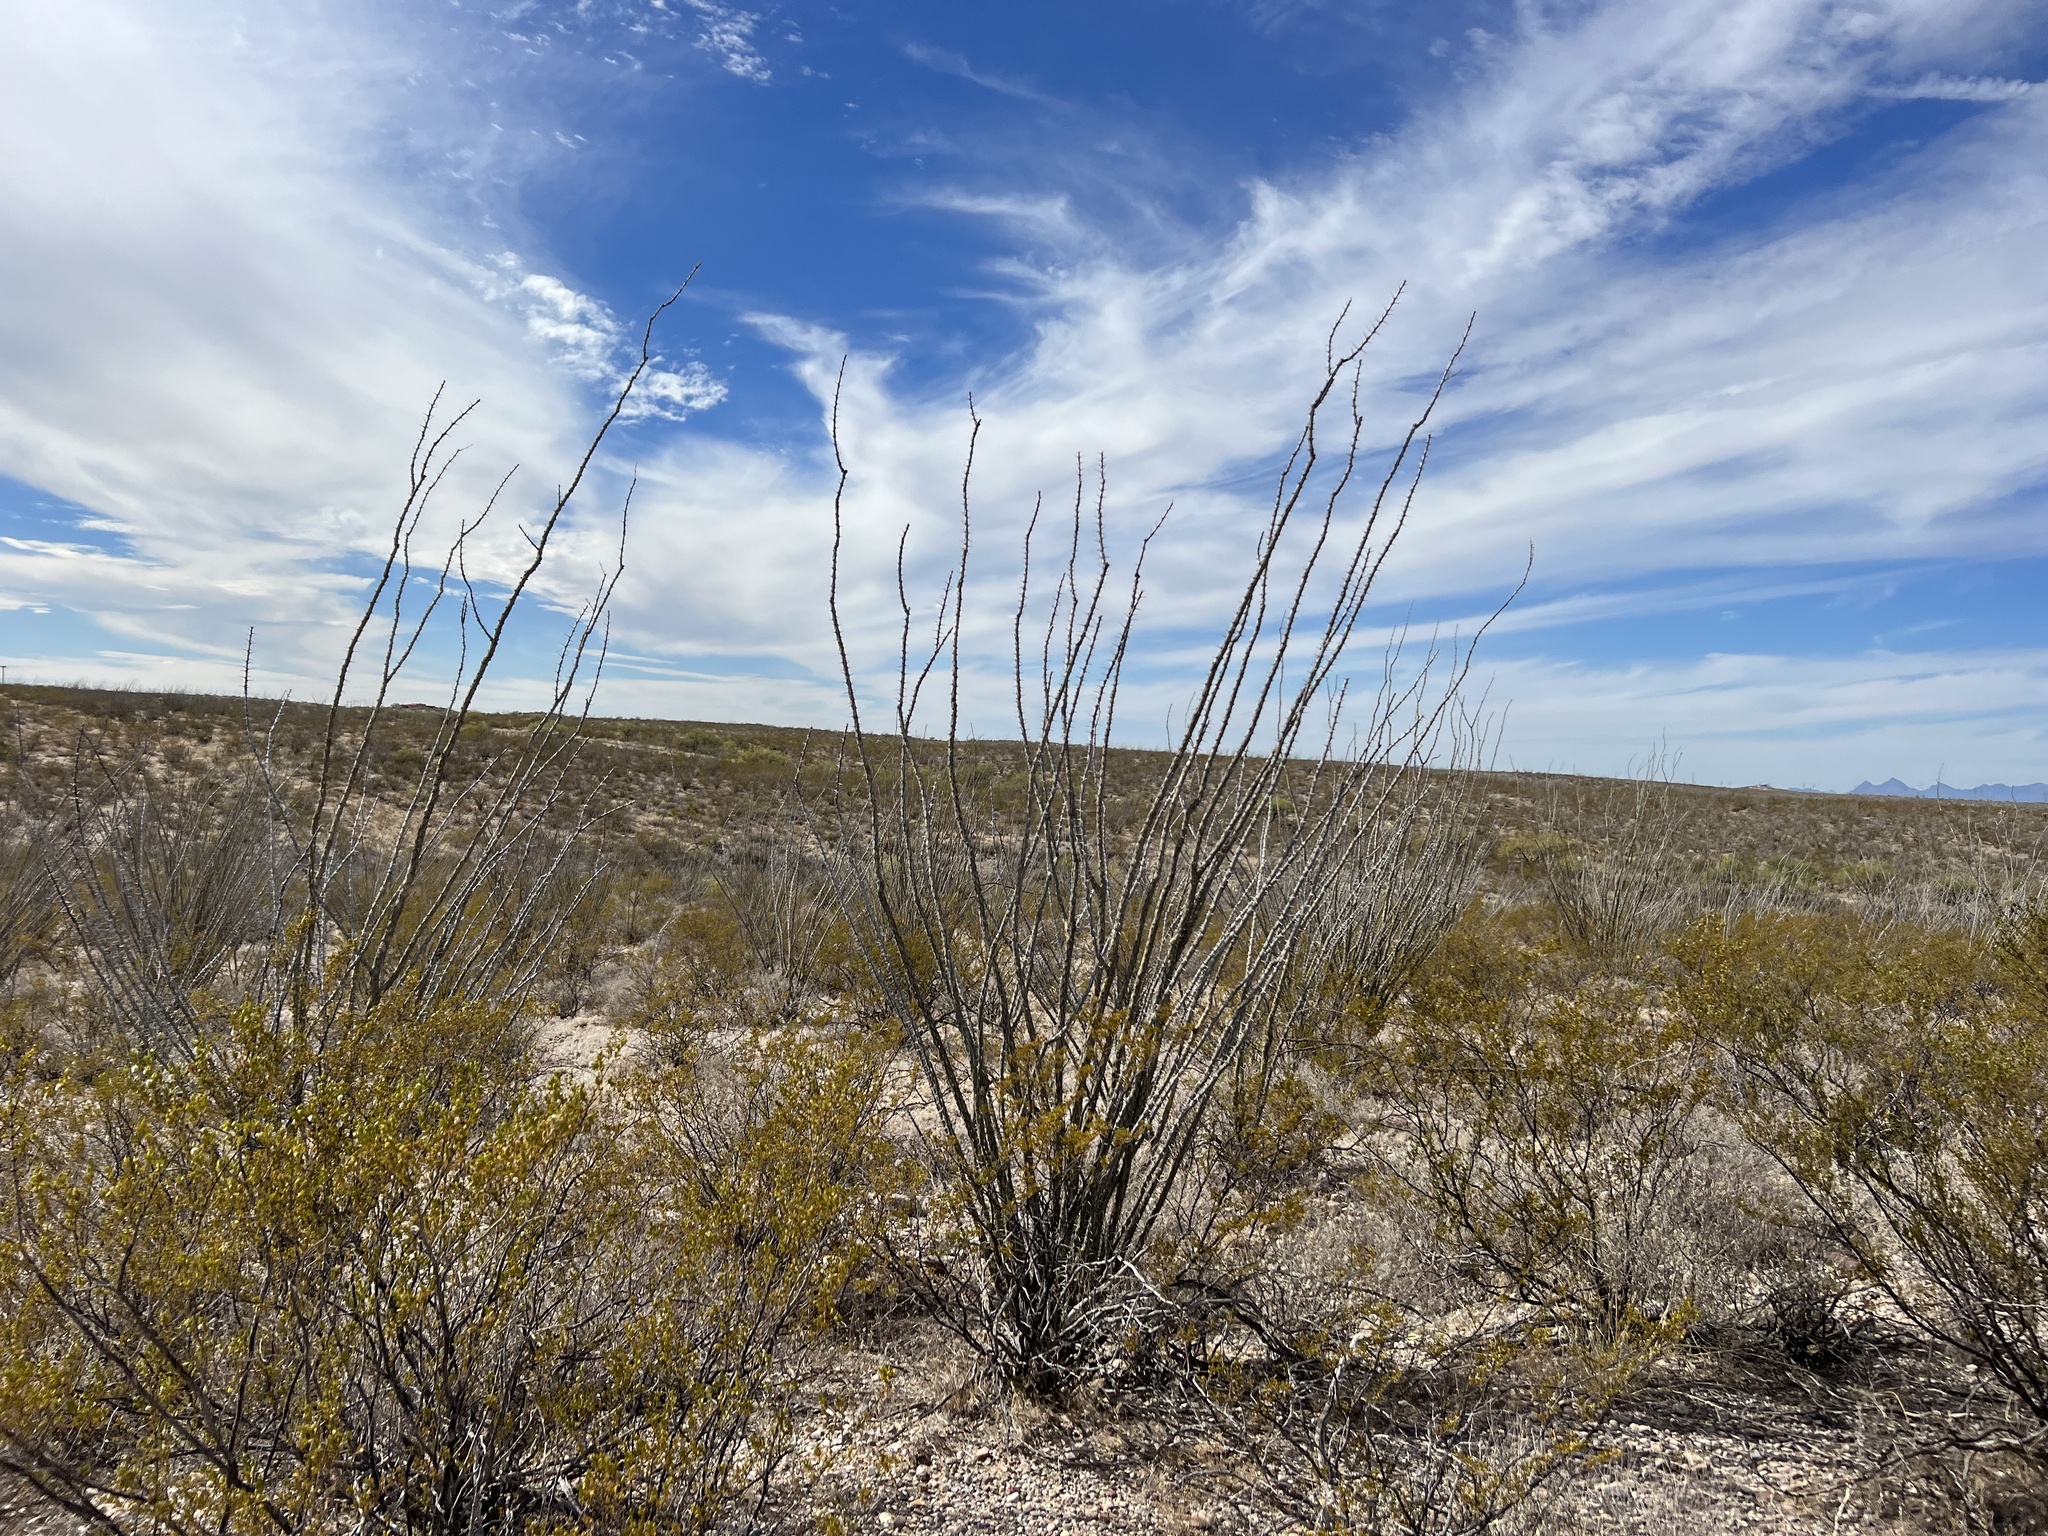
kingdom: Plantae
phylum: Tracheophyta
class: Magnoliopsida
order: Ericales
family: Fouquieriaceae
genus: Fouquieria
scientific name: Fouquieria splendens
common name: Vine-cactus
